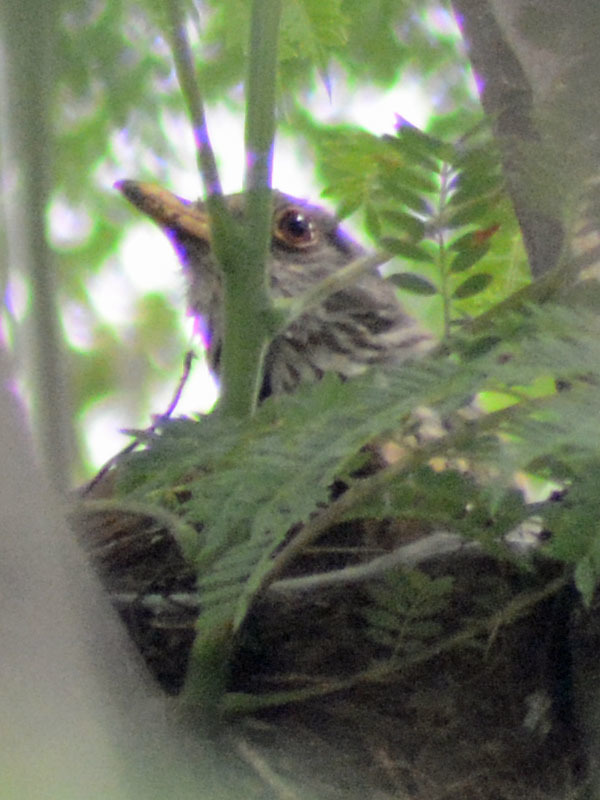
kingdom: Animalia
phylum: Chordata
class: Aves
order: Passeriformes
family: Turdidae
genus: Turdus
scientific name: Turdus rufopalliatus
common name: Rufous-backed robin
